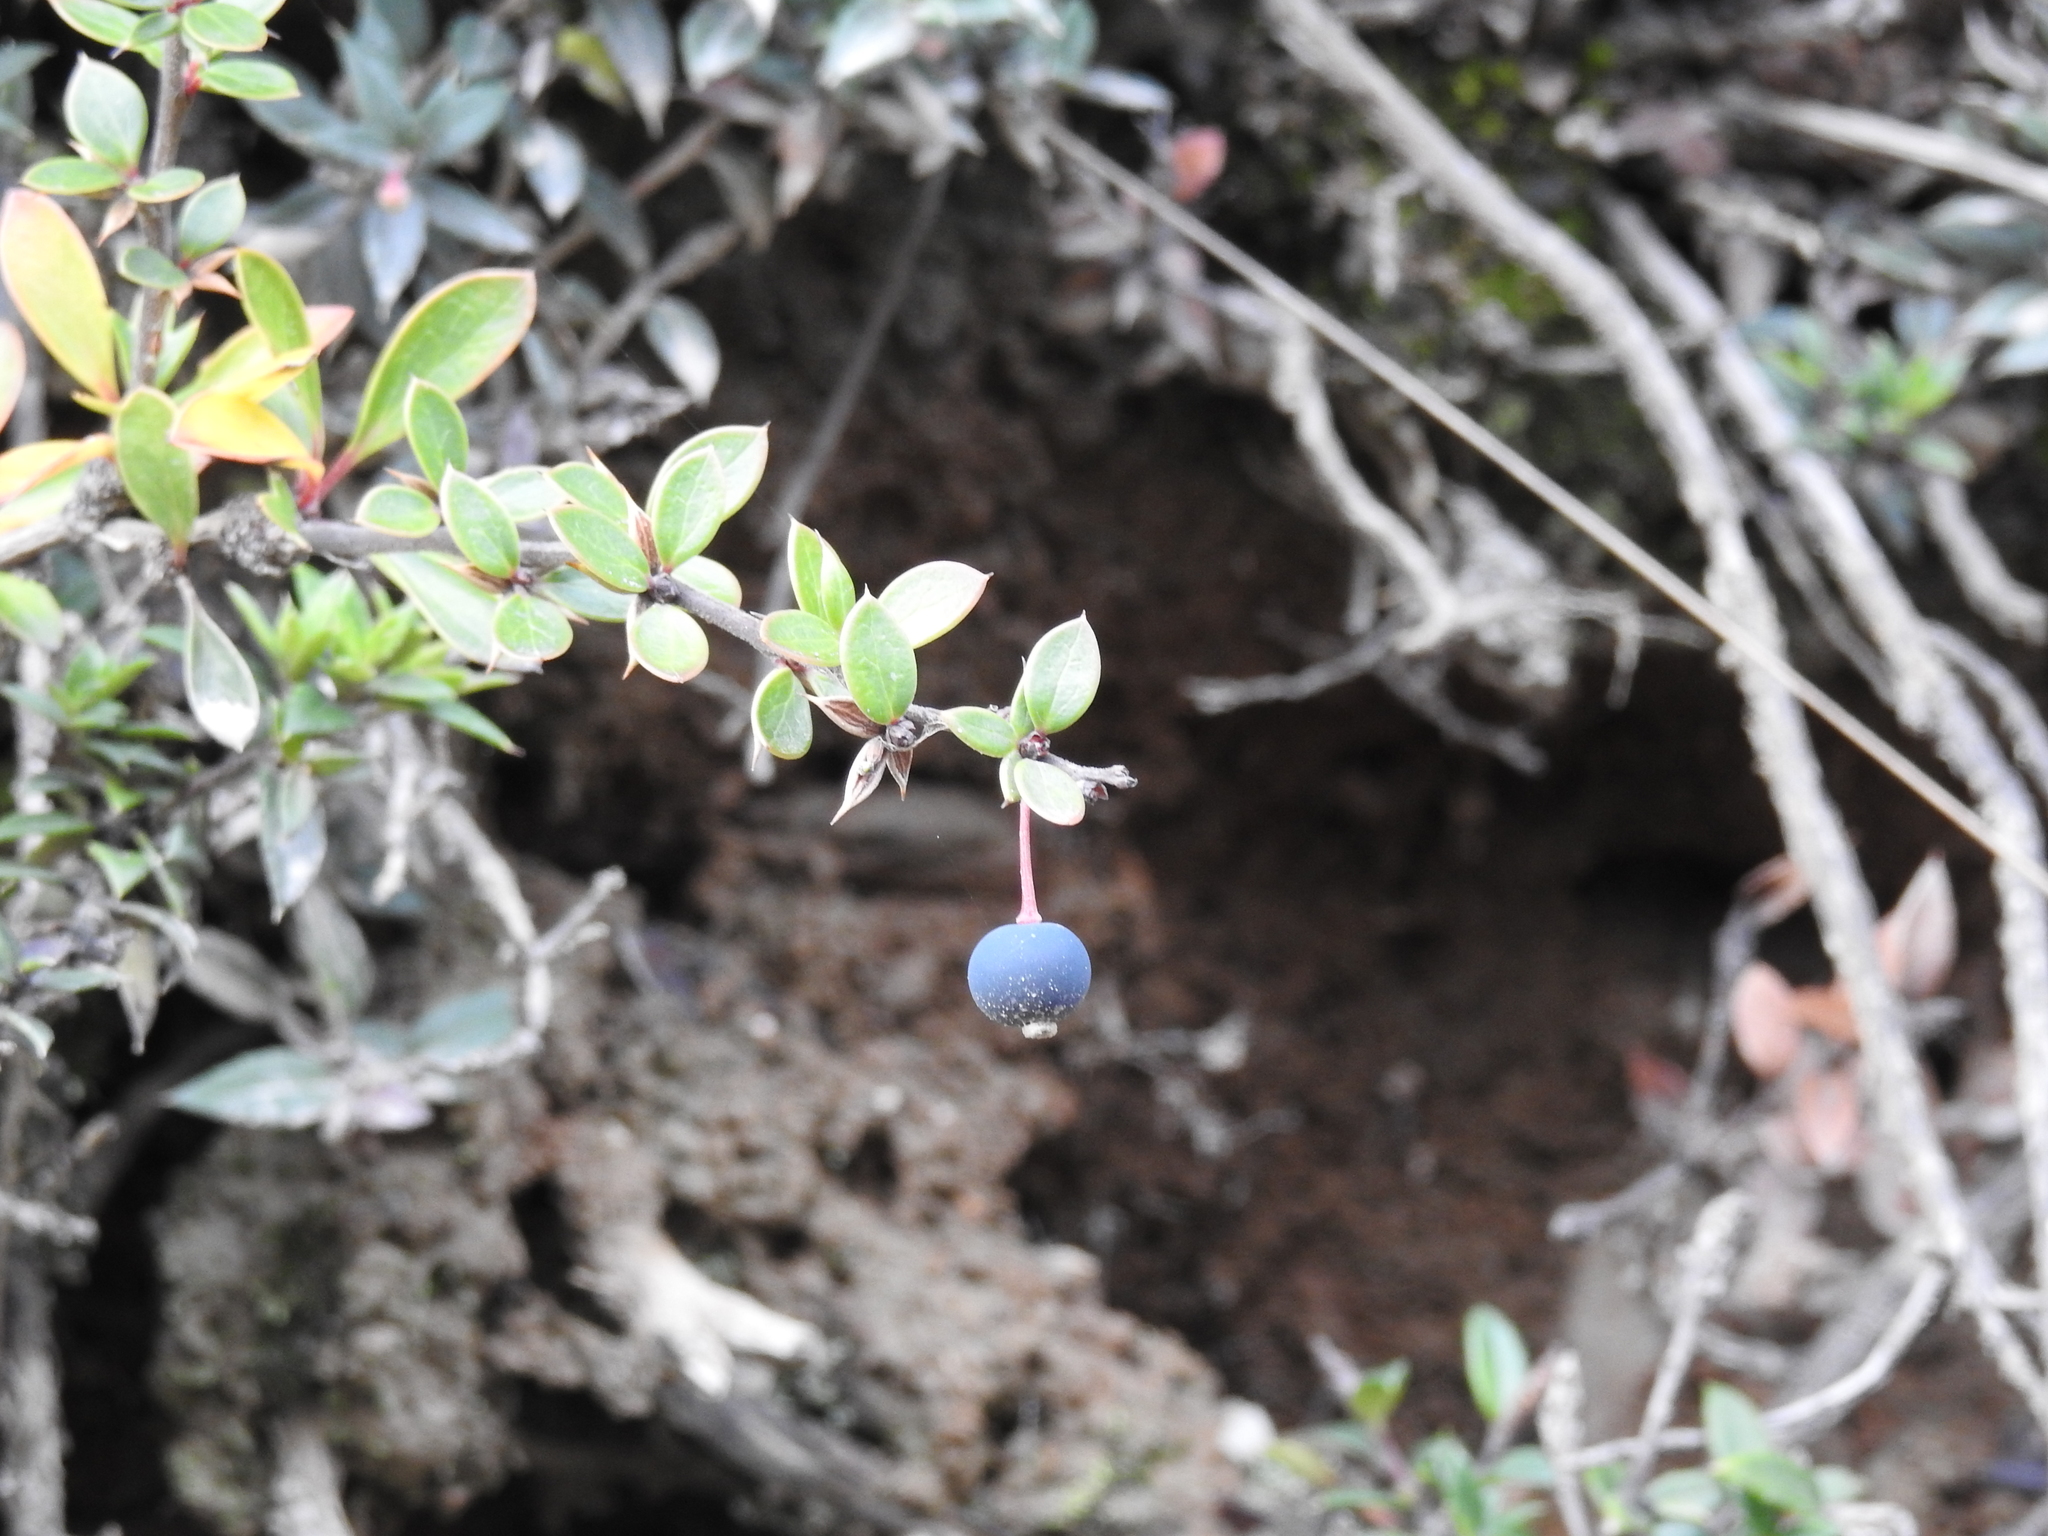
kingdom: Plantae
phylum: Tracheophyta
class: Magnoliopsida
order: Ranunculales
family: Berberidaceae
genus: Berberis
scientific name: Berberis microphylla
